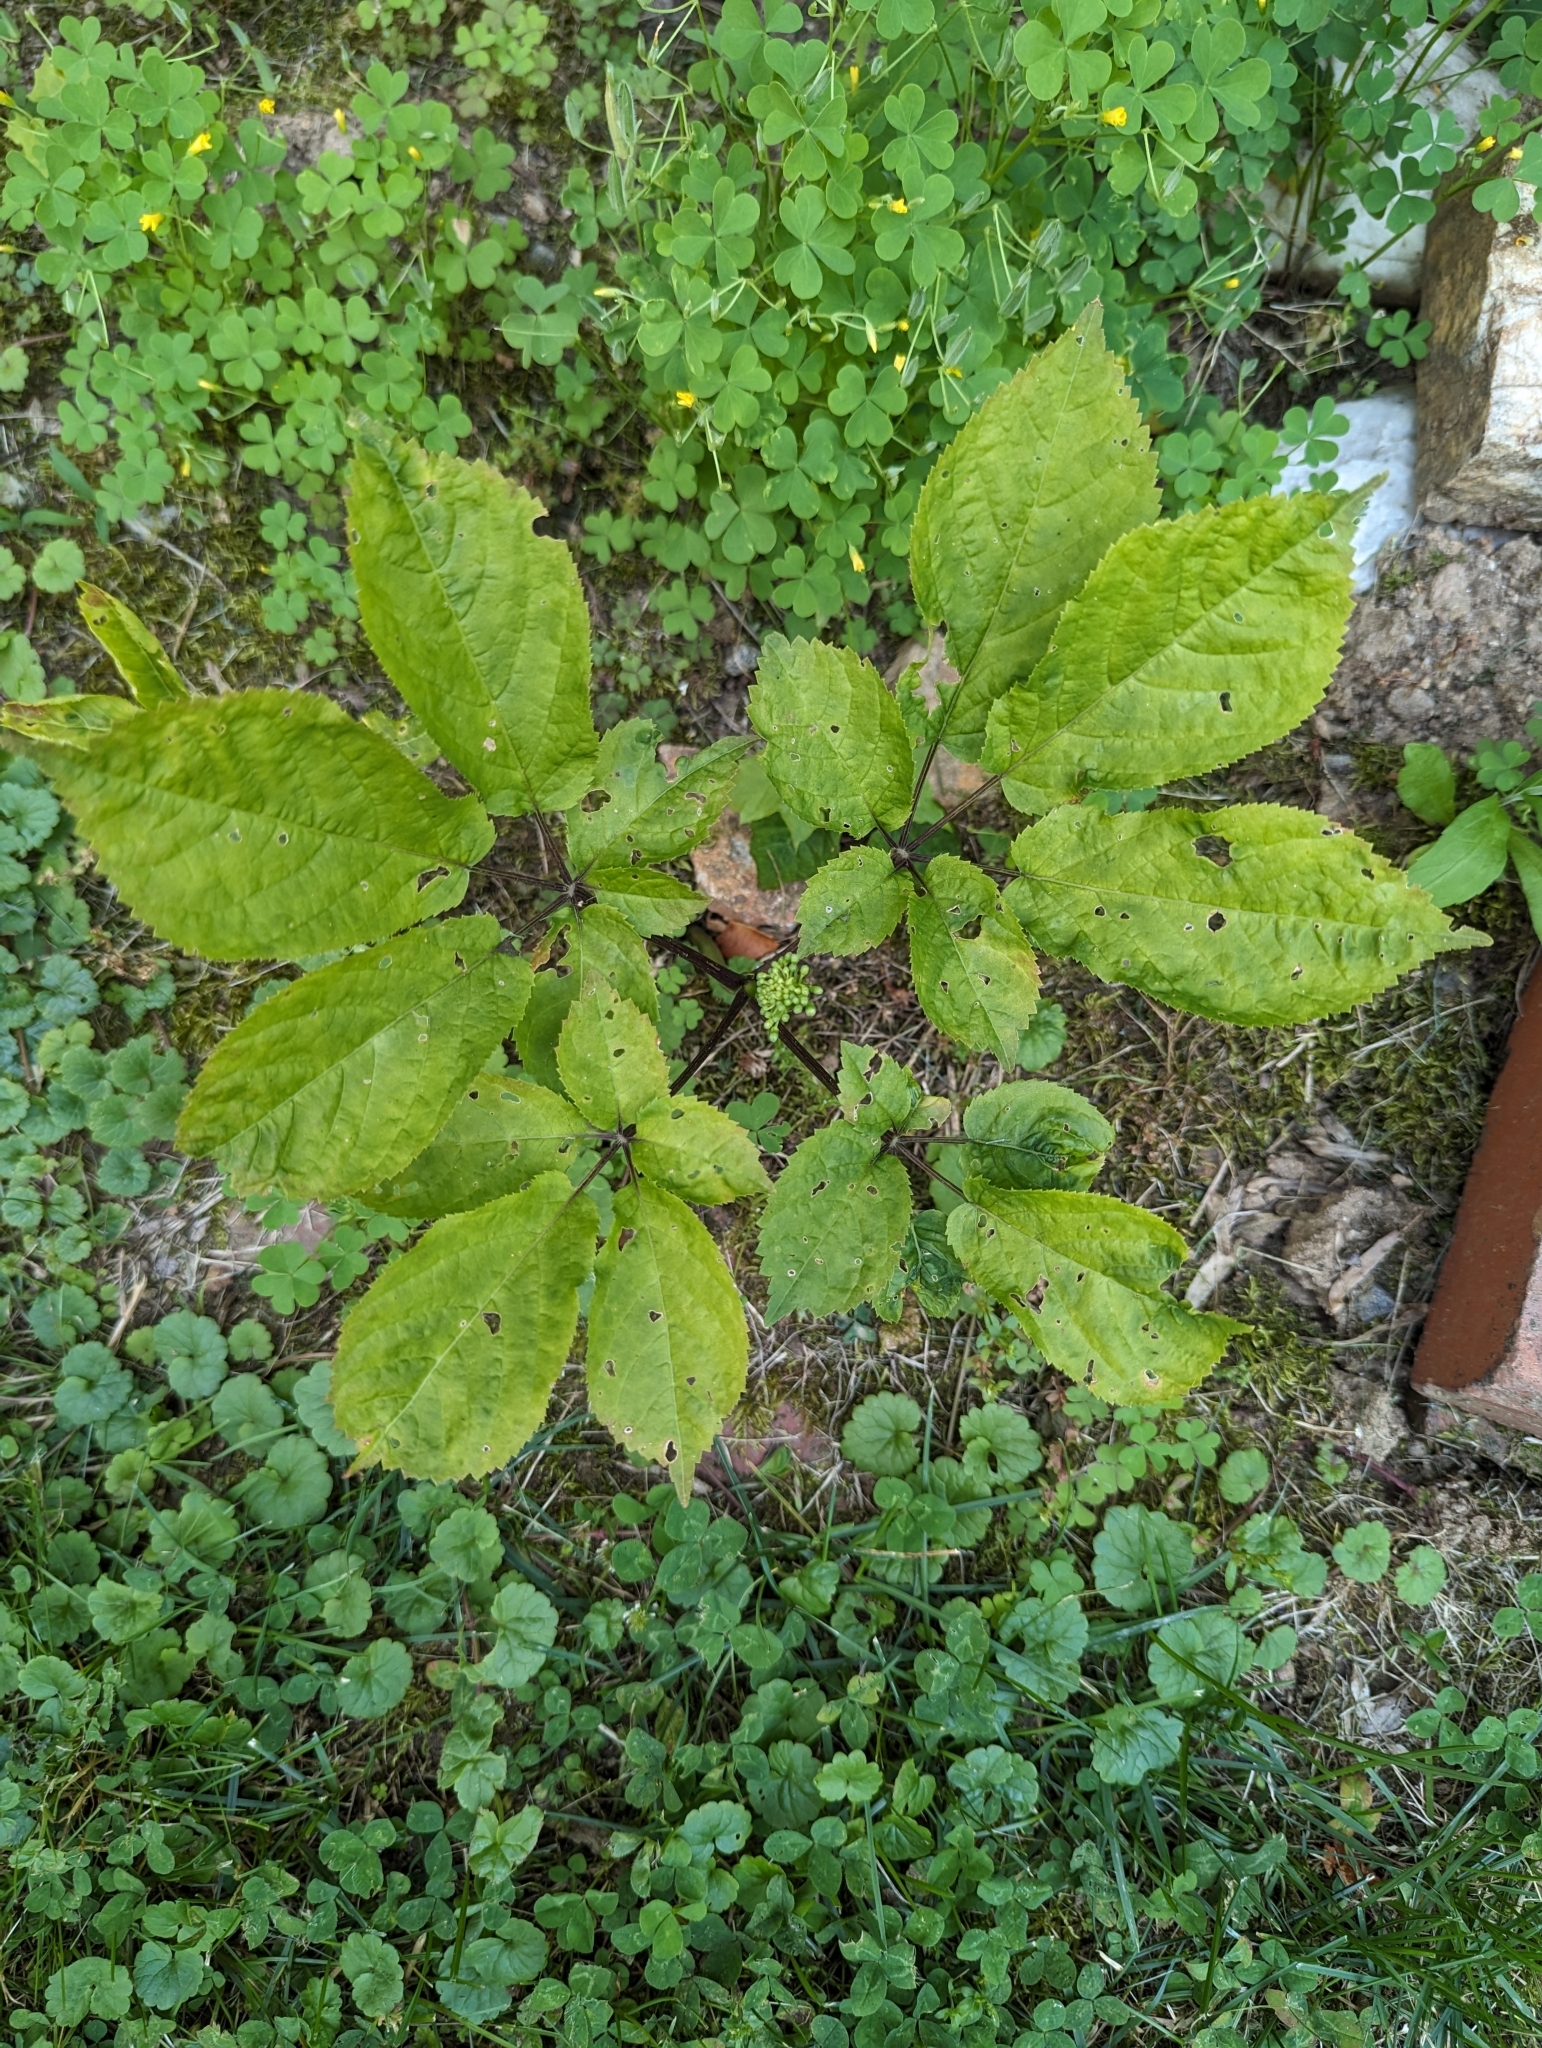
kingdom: Plantae
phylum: Tracheophyta
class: Magnoliopsida
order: Apiales
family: Araliaceae
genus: Panax
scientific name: Panax quinquefolius
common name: American ginseng
